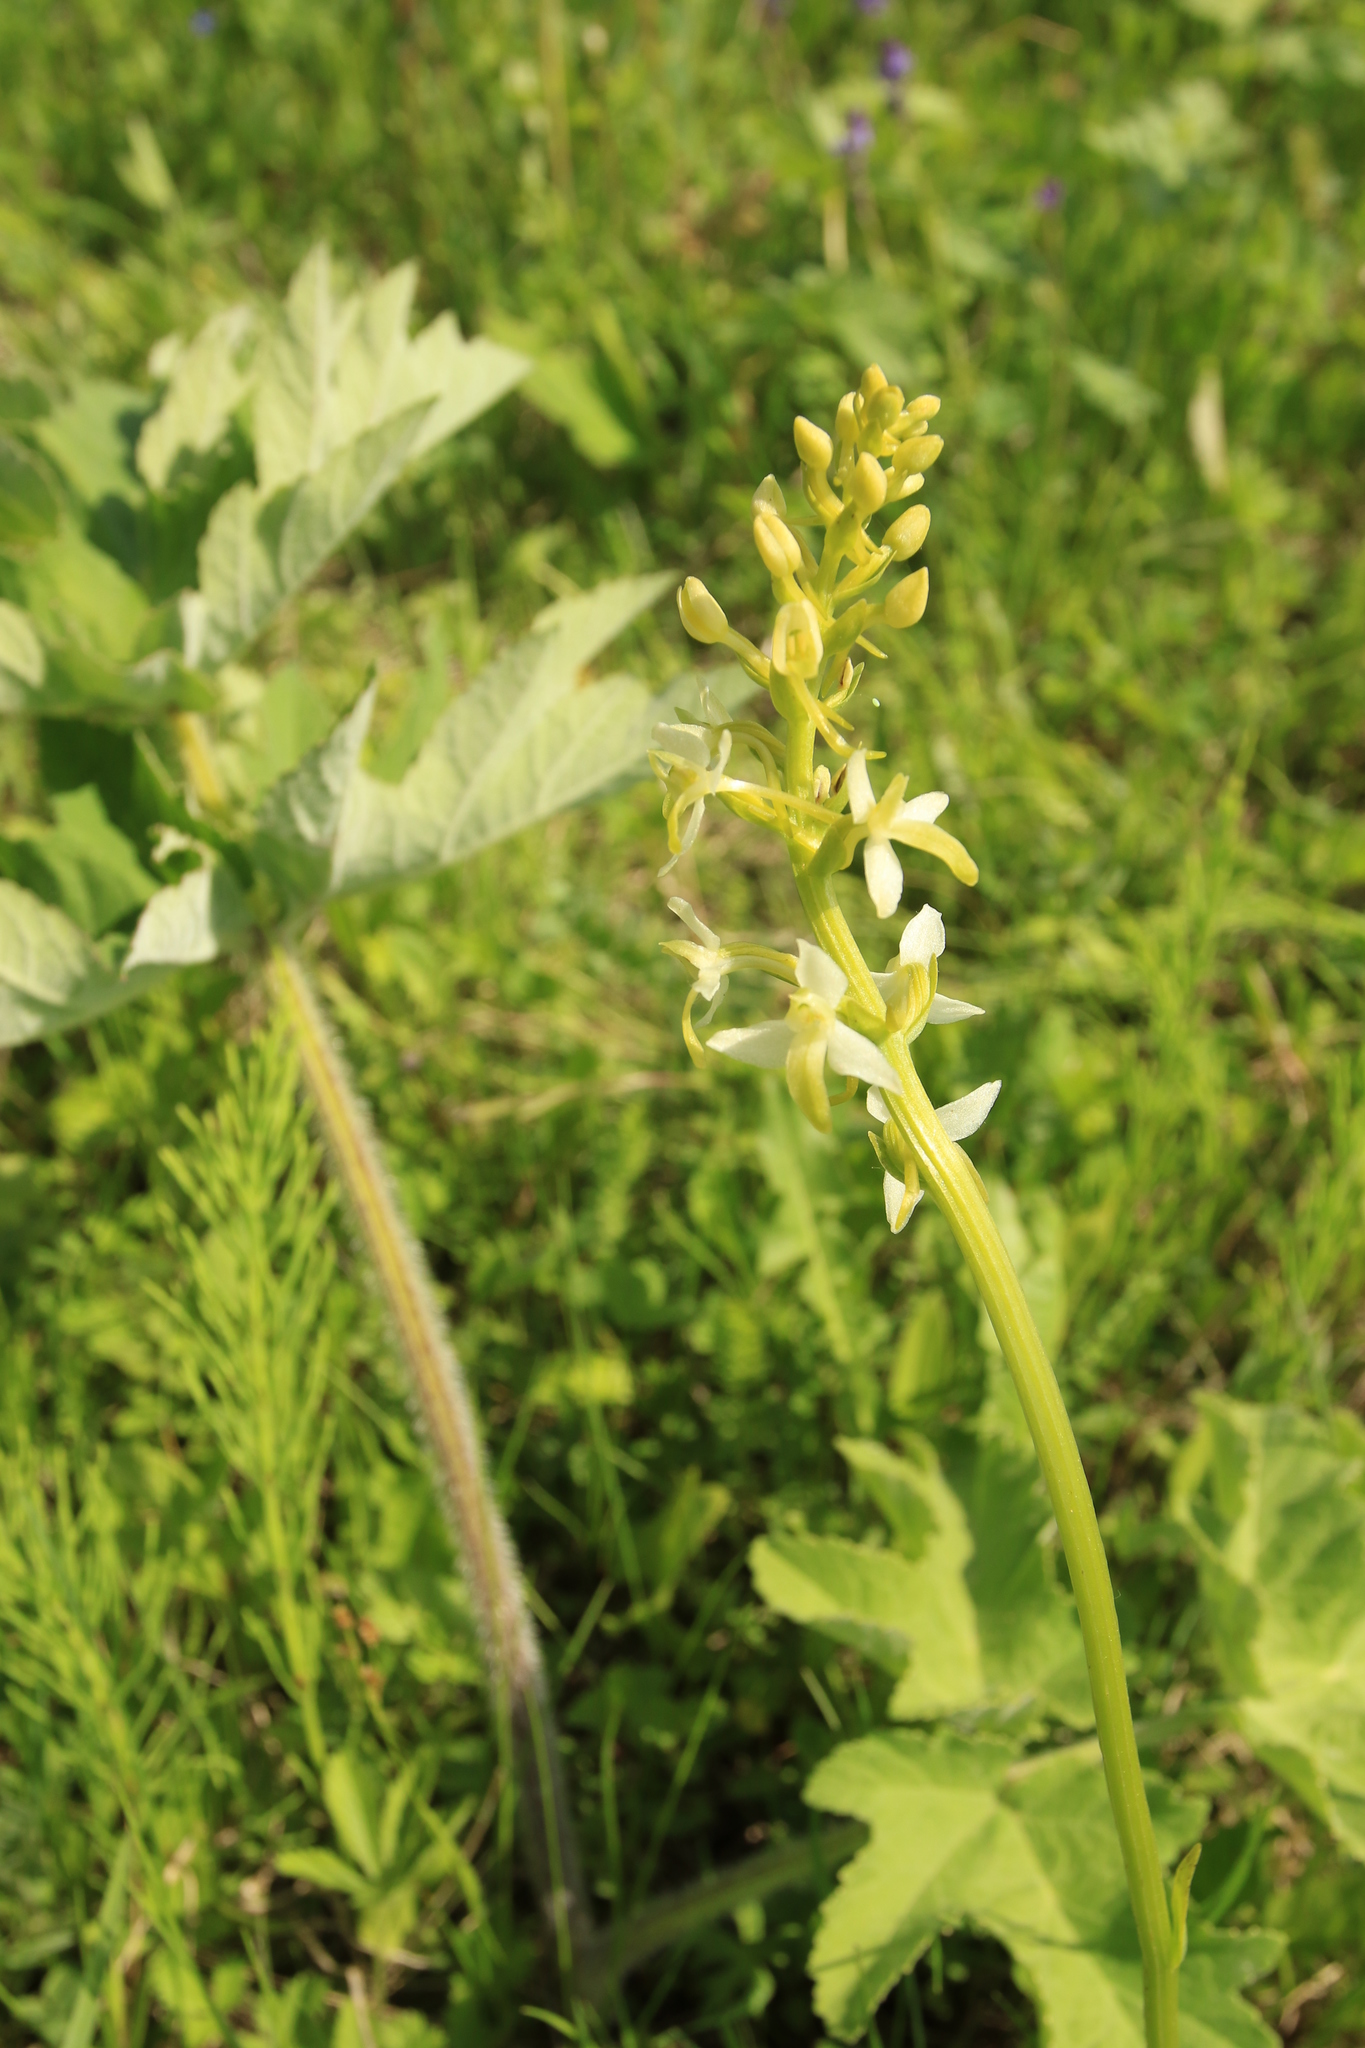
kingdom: Plantae
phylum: Tracheophyta
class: Liliopsida
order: Asparagales
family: Orchidaceae
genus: Platanthera
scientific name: Platanthera bifolia
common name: Lesser butterfly-orchid
